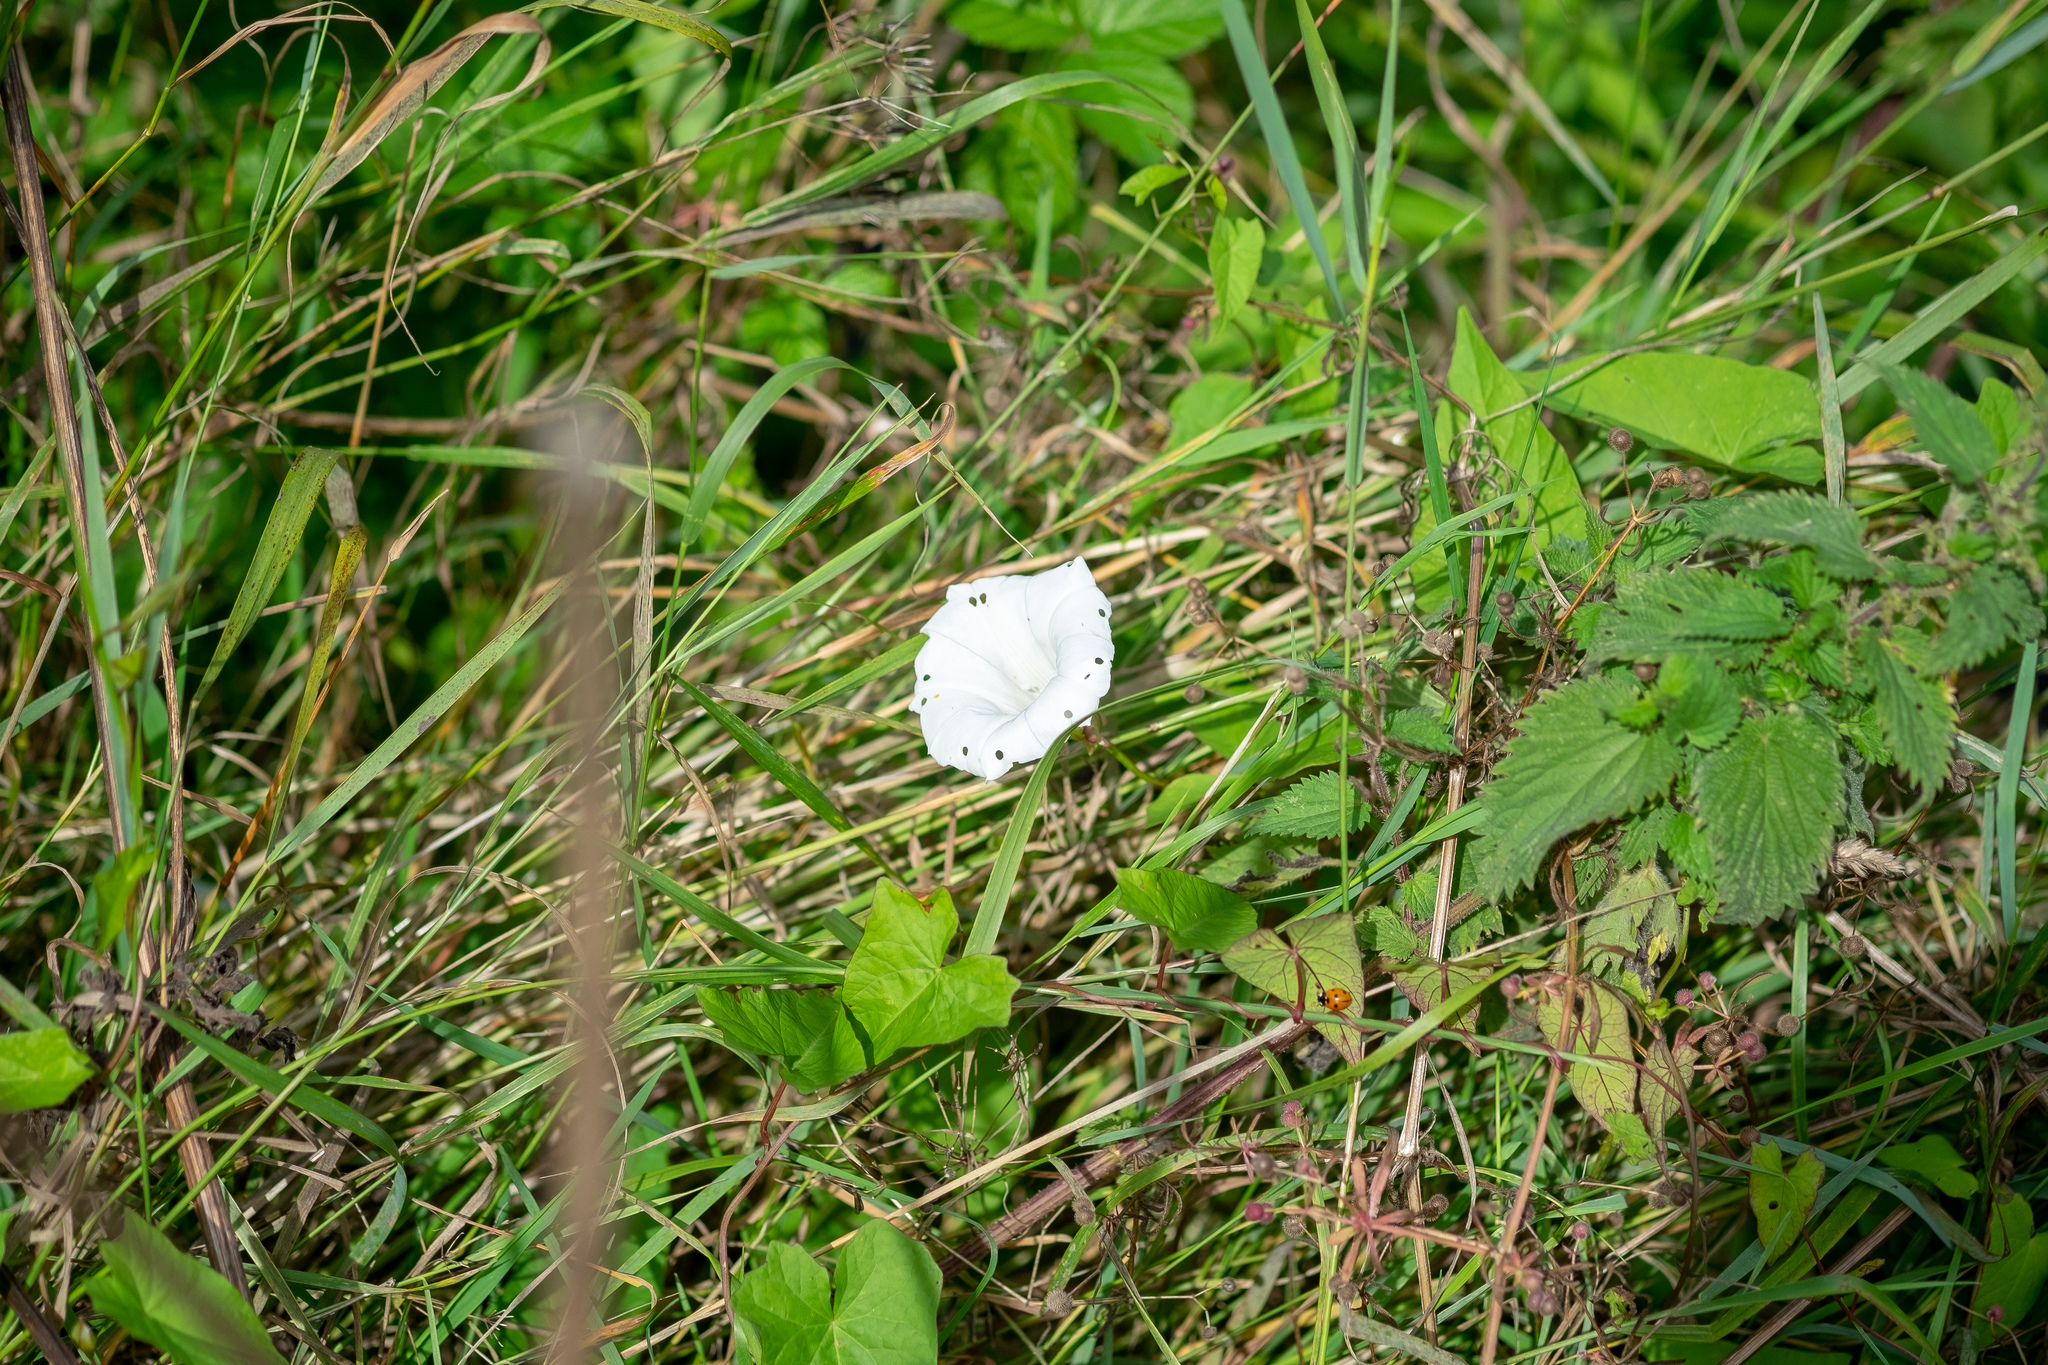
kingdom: Plantae
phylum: Tracheophyta
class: Magnoliopsida
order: Solanales
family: Convolvulaceae
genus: Calystegia
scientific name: Calystegia sepium
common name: Hedge bindweed
